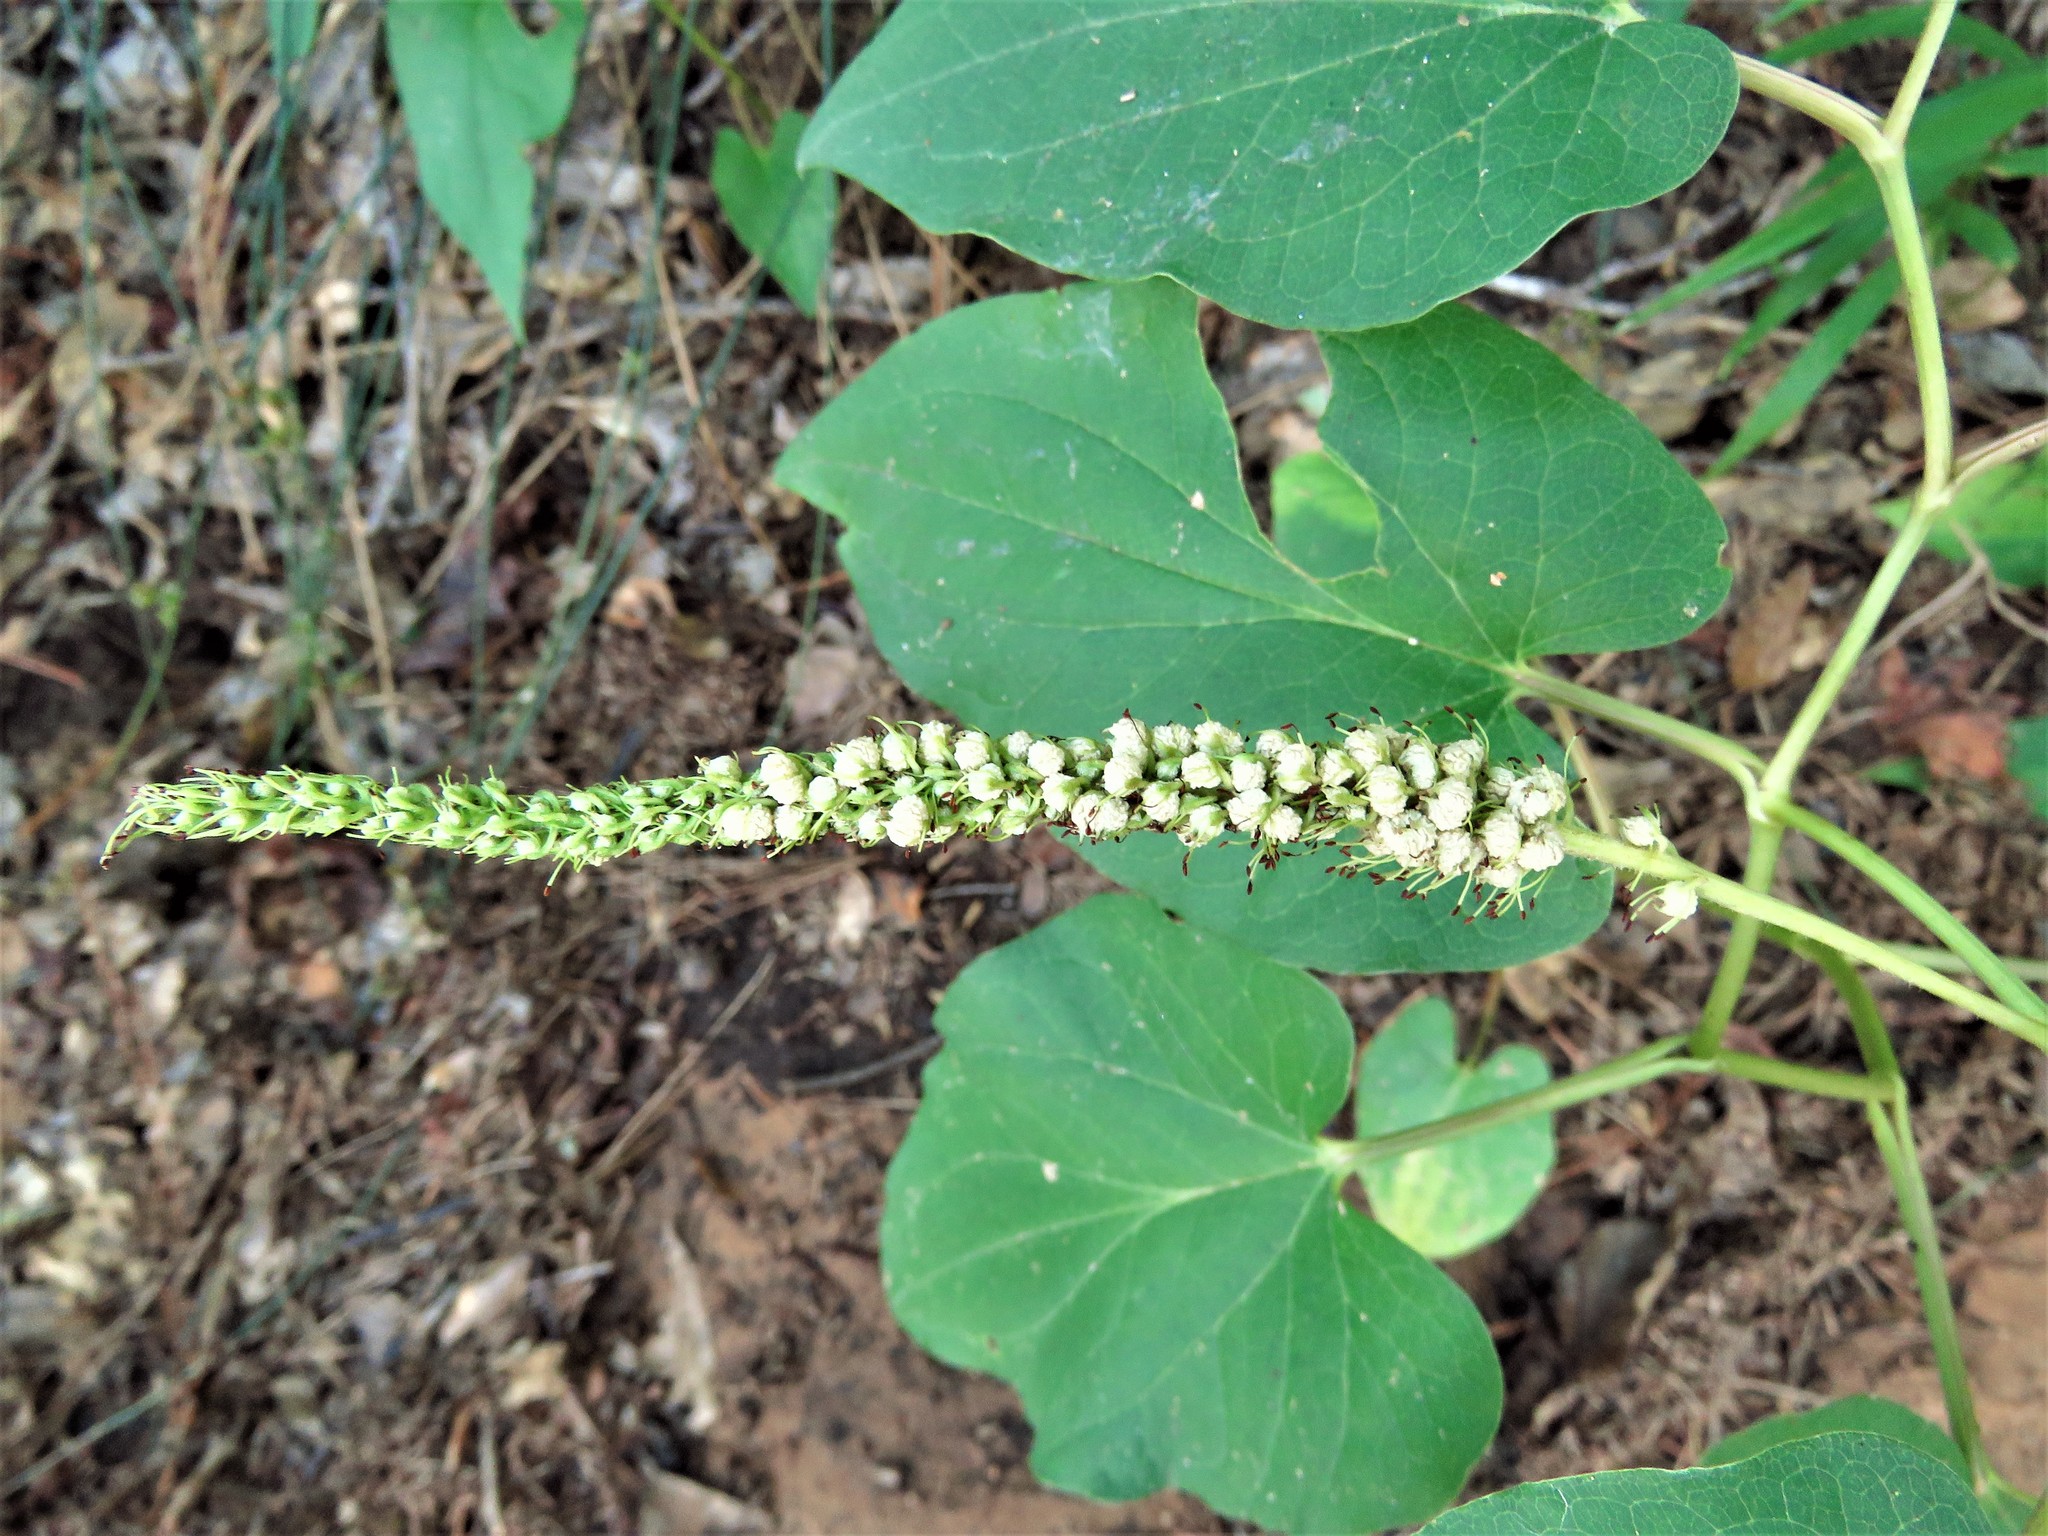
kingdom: Plantae
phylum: Tracheophyta
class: Magnoliopsida
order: Piperales
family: Saururaceae
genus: Saururus
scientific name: Saururus cernuus
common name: Lizard's-tail
